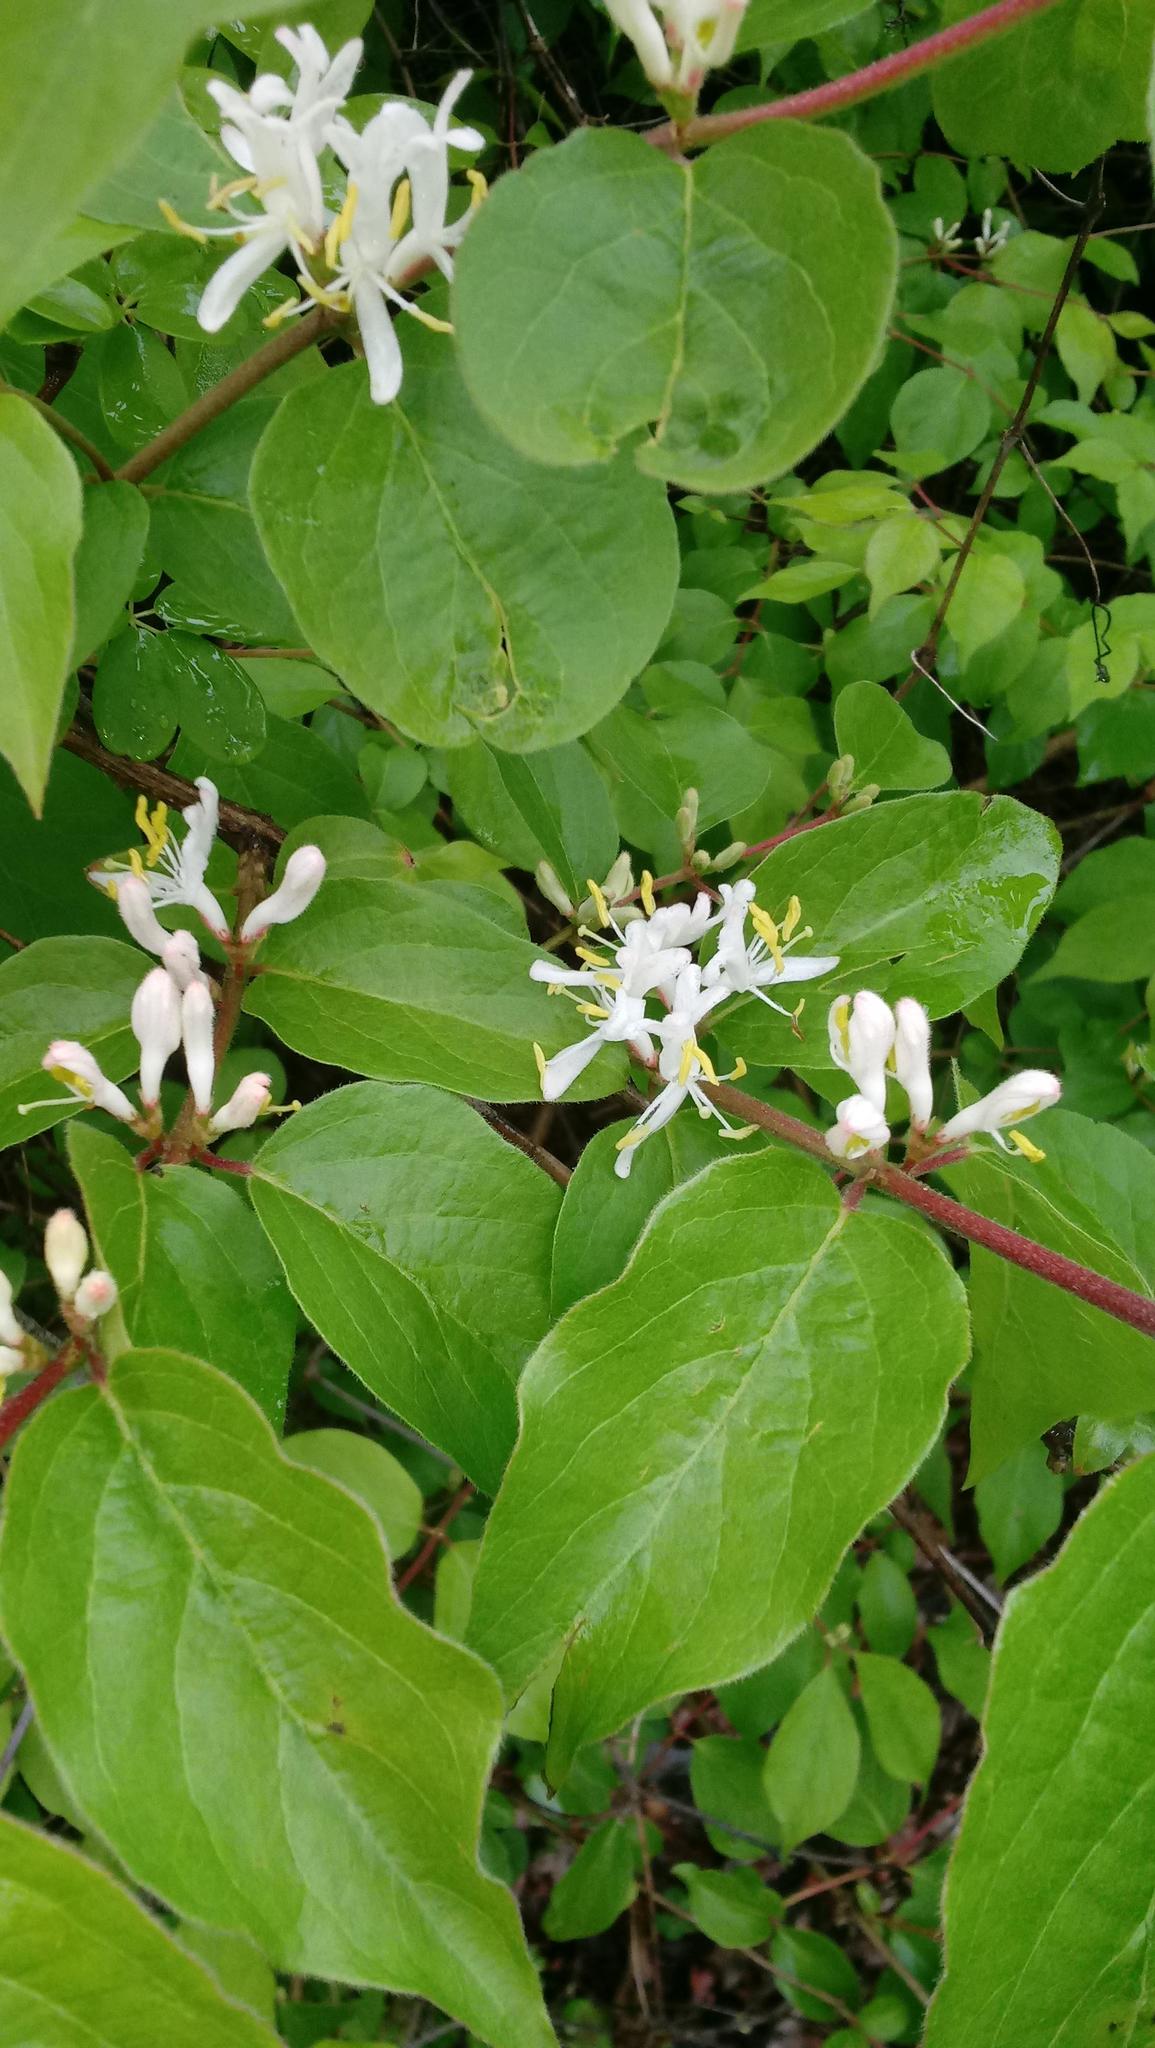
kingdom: Plantae
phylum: Tracheophyta
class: Magnoliopsida
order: Dipsacales
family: Caprifoliaceae
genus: Lonicera
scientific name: Lonicera maackii
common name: Amur honeysuckle
